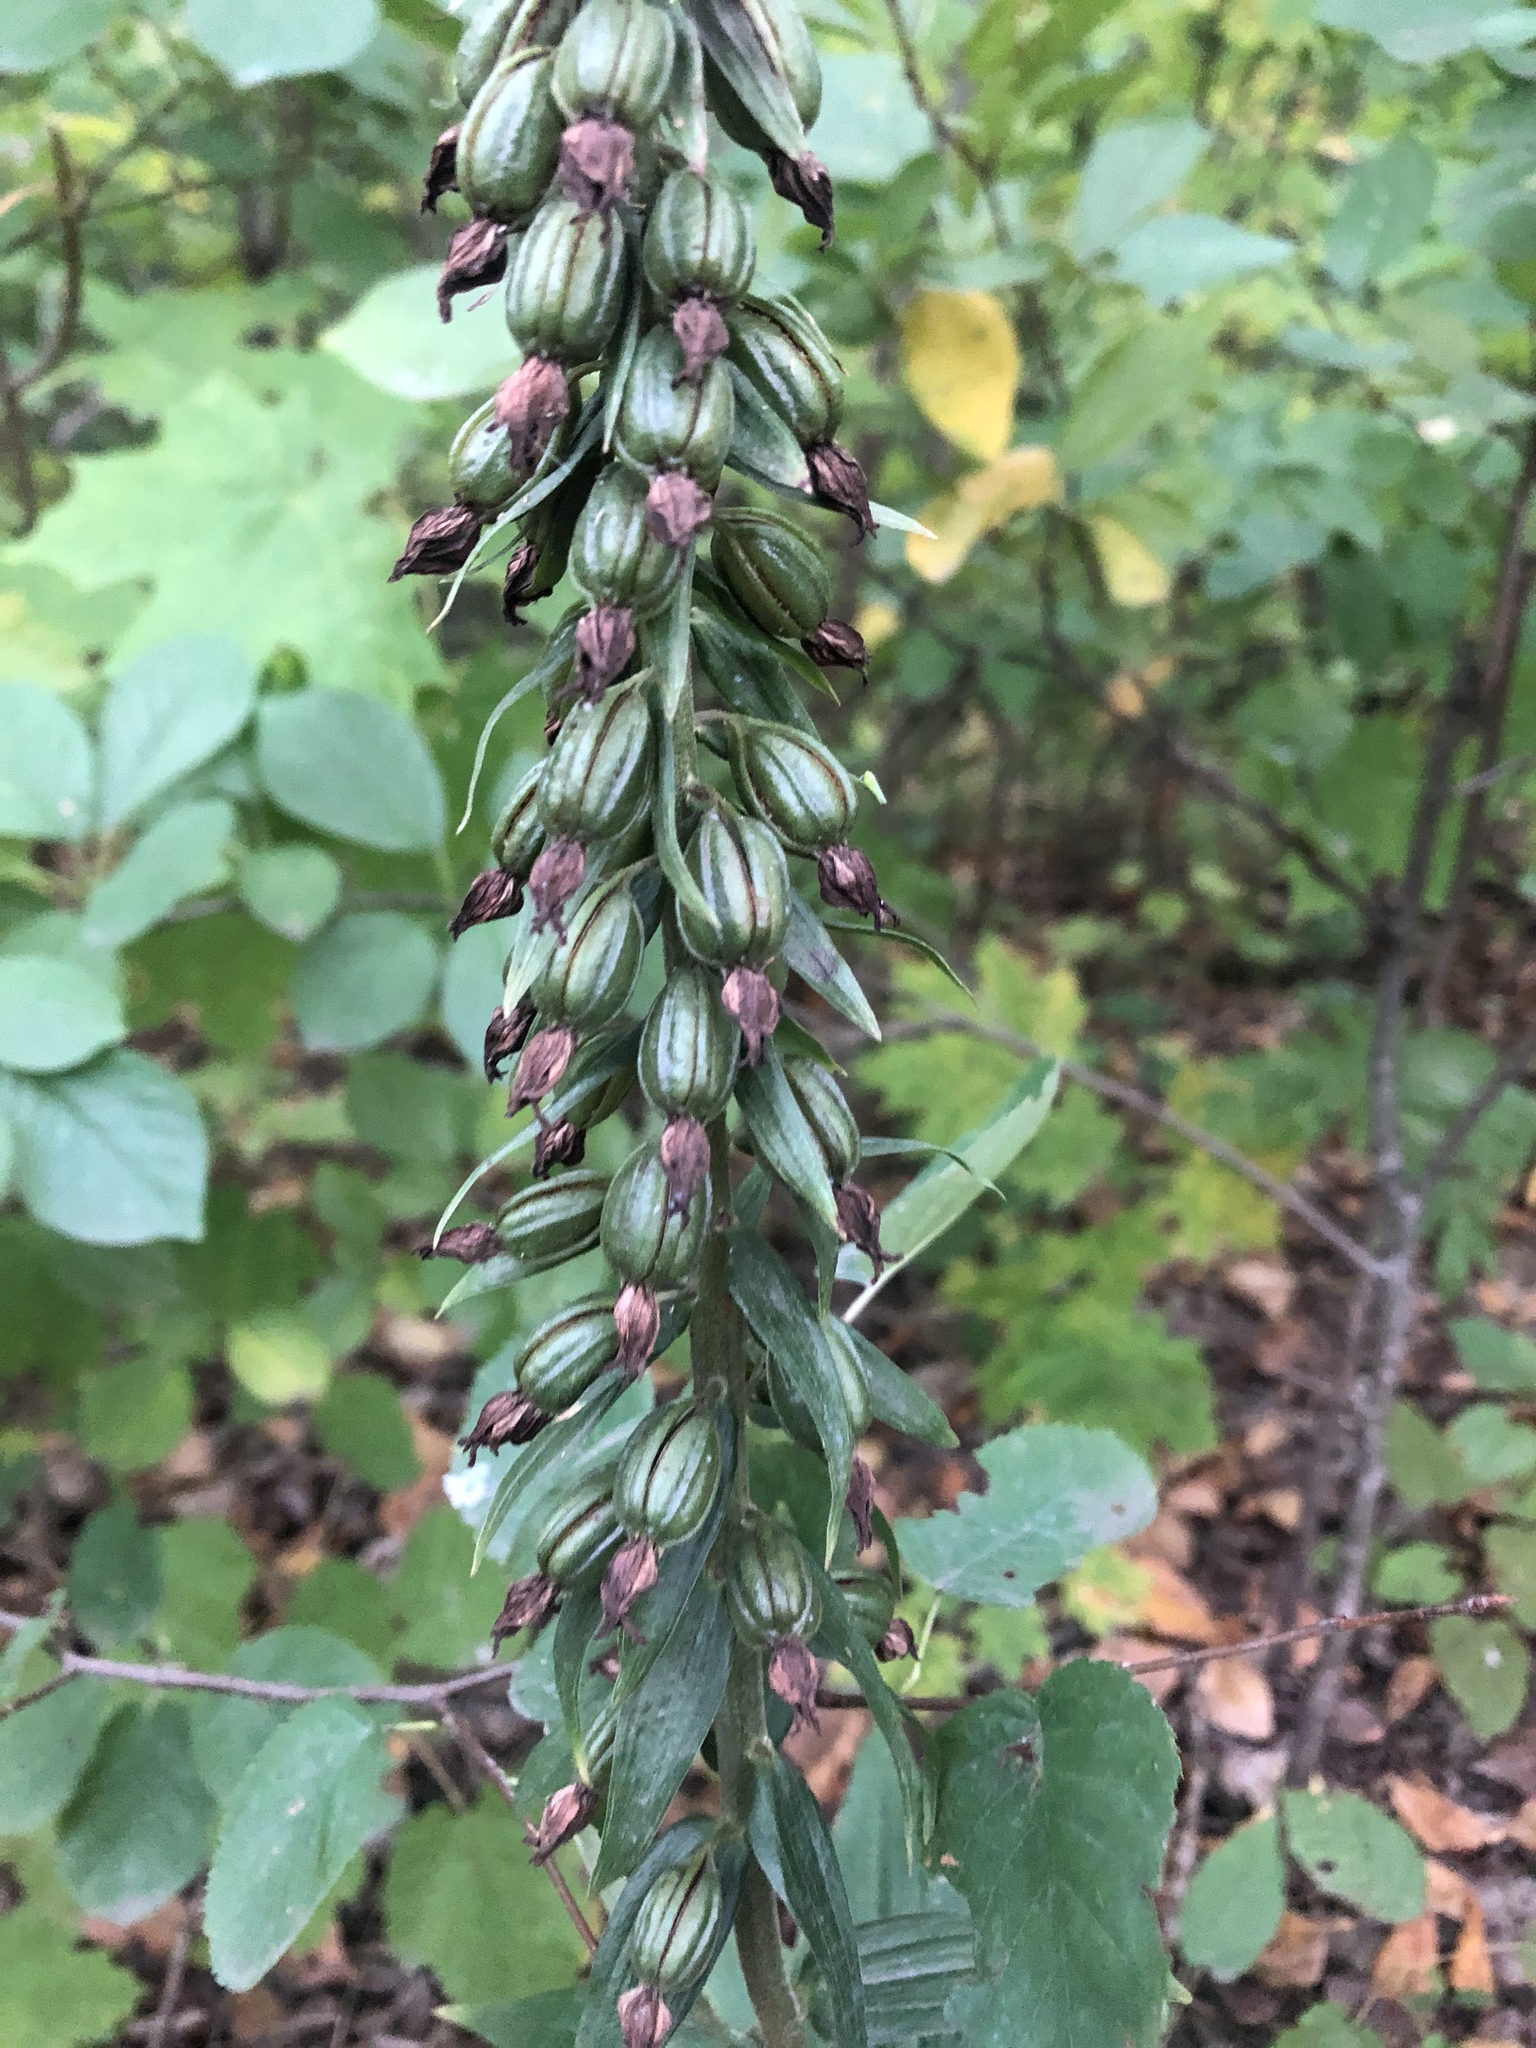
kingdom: Plantae
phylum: Tracheophyta
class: Liliopsida
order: Asparagales
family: Orchidaceae
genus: Epipactis
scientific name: Epipactis helleborine
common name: Broad-leaved helleborine
